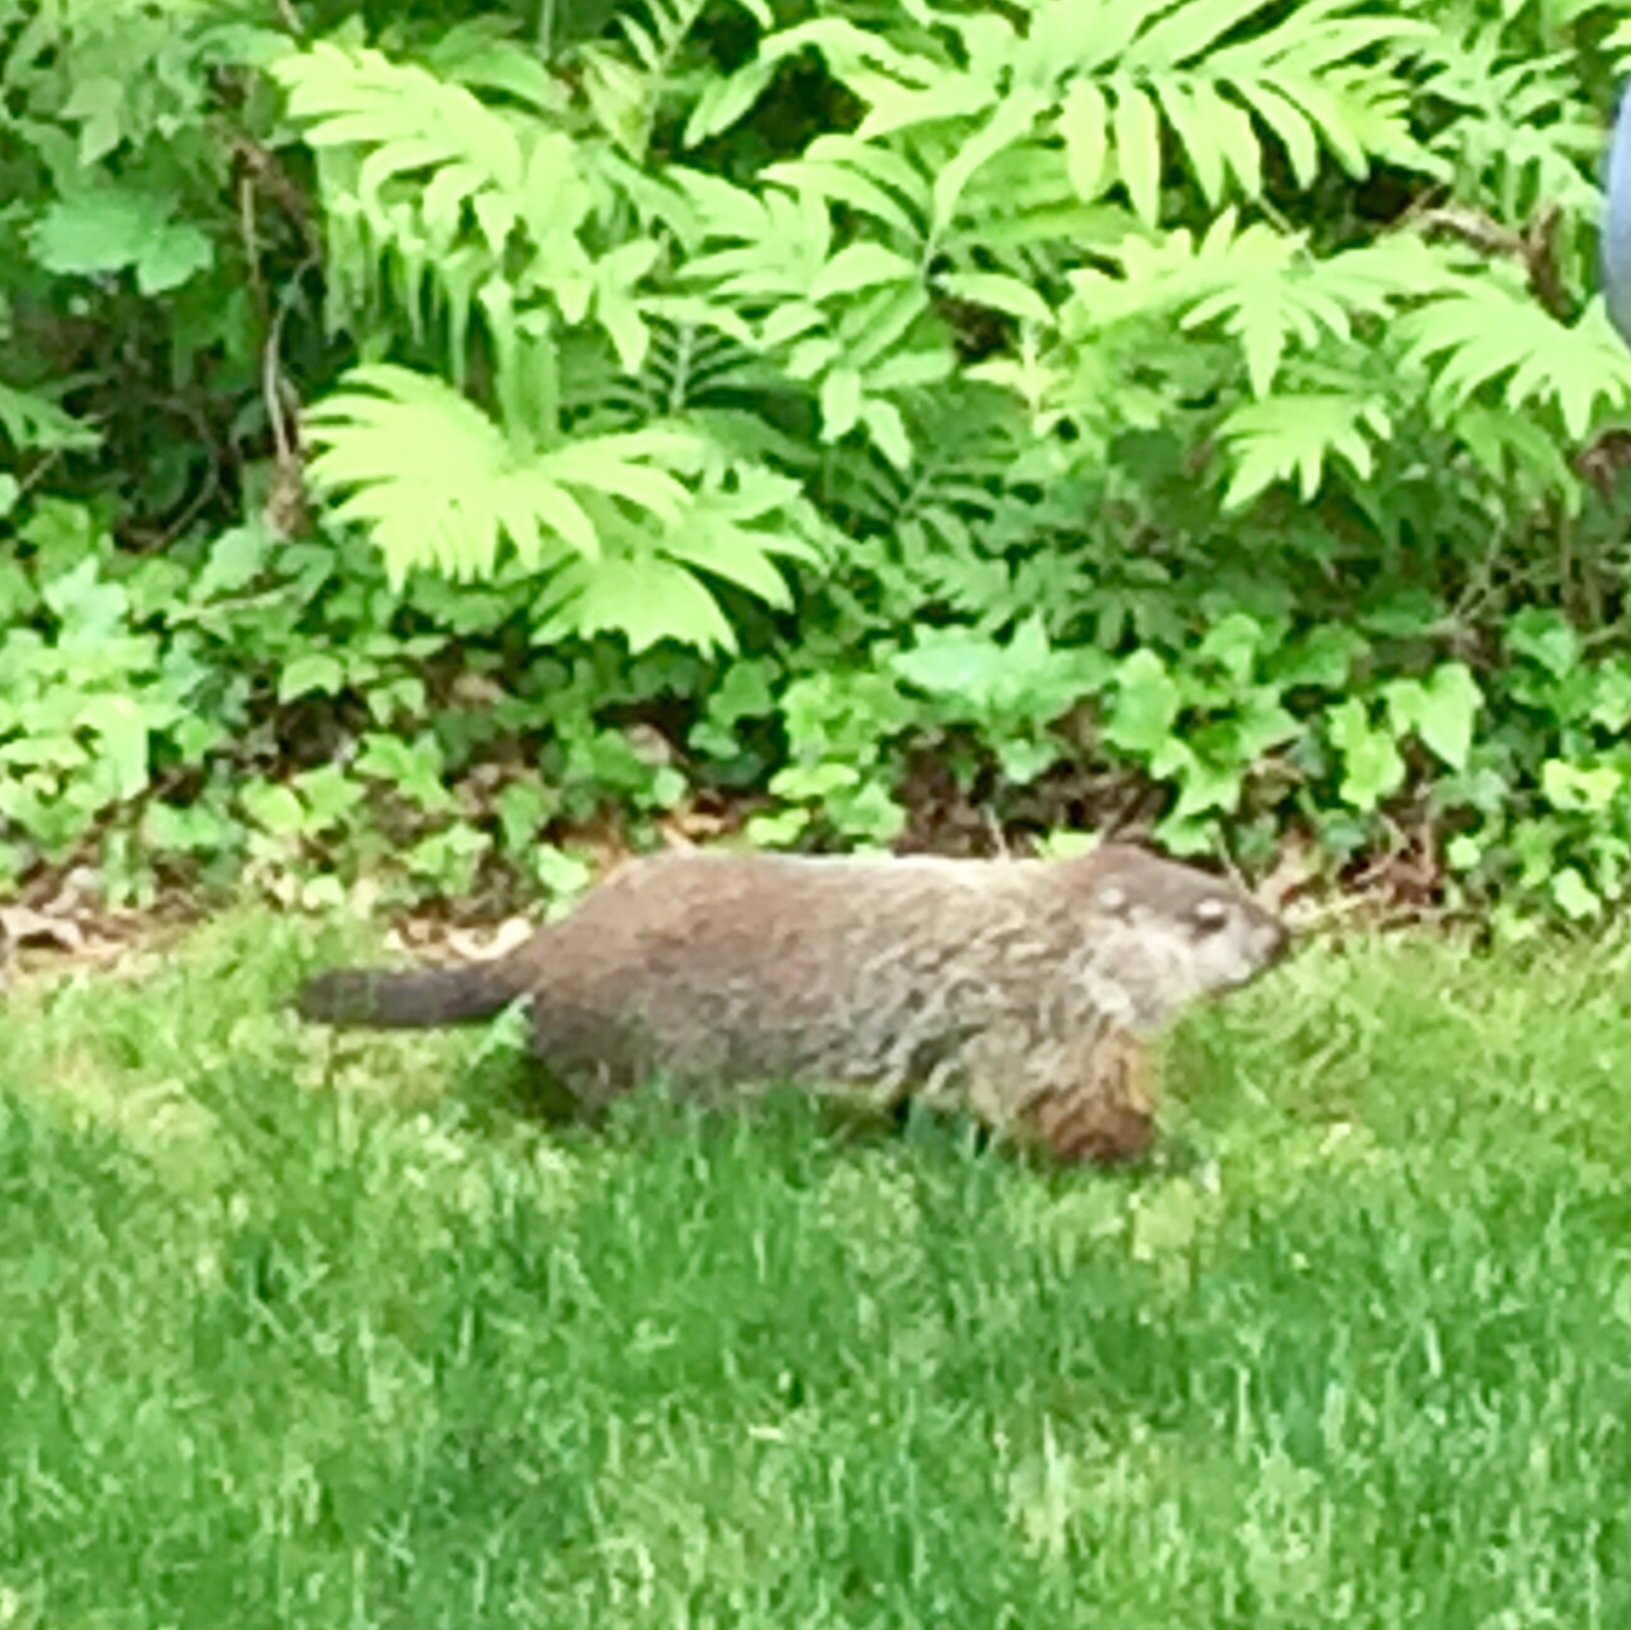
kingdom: Animalia
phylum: Chordata
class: Mammalia
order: Rodentia
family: Sciuridae
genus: Marmota
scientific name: Marmota monax
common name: Groundhog
